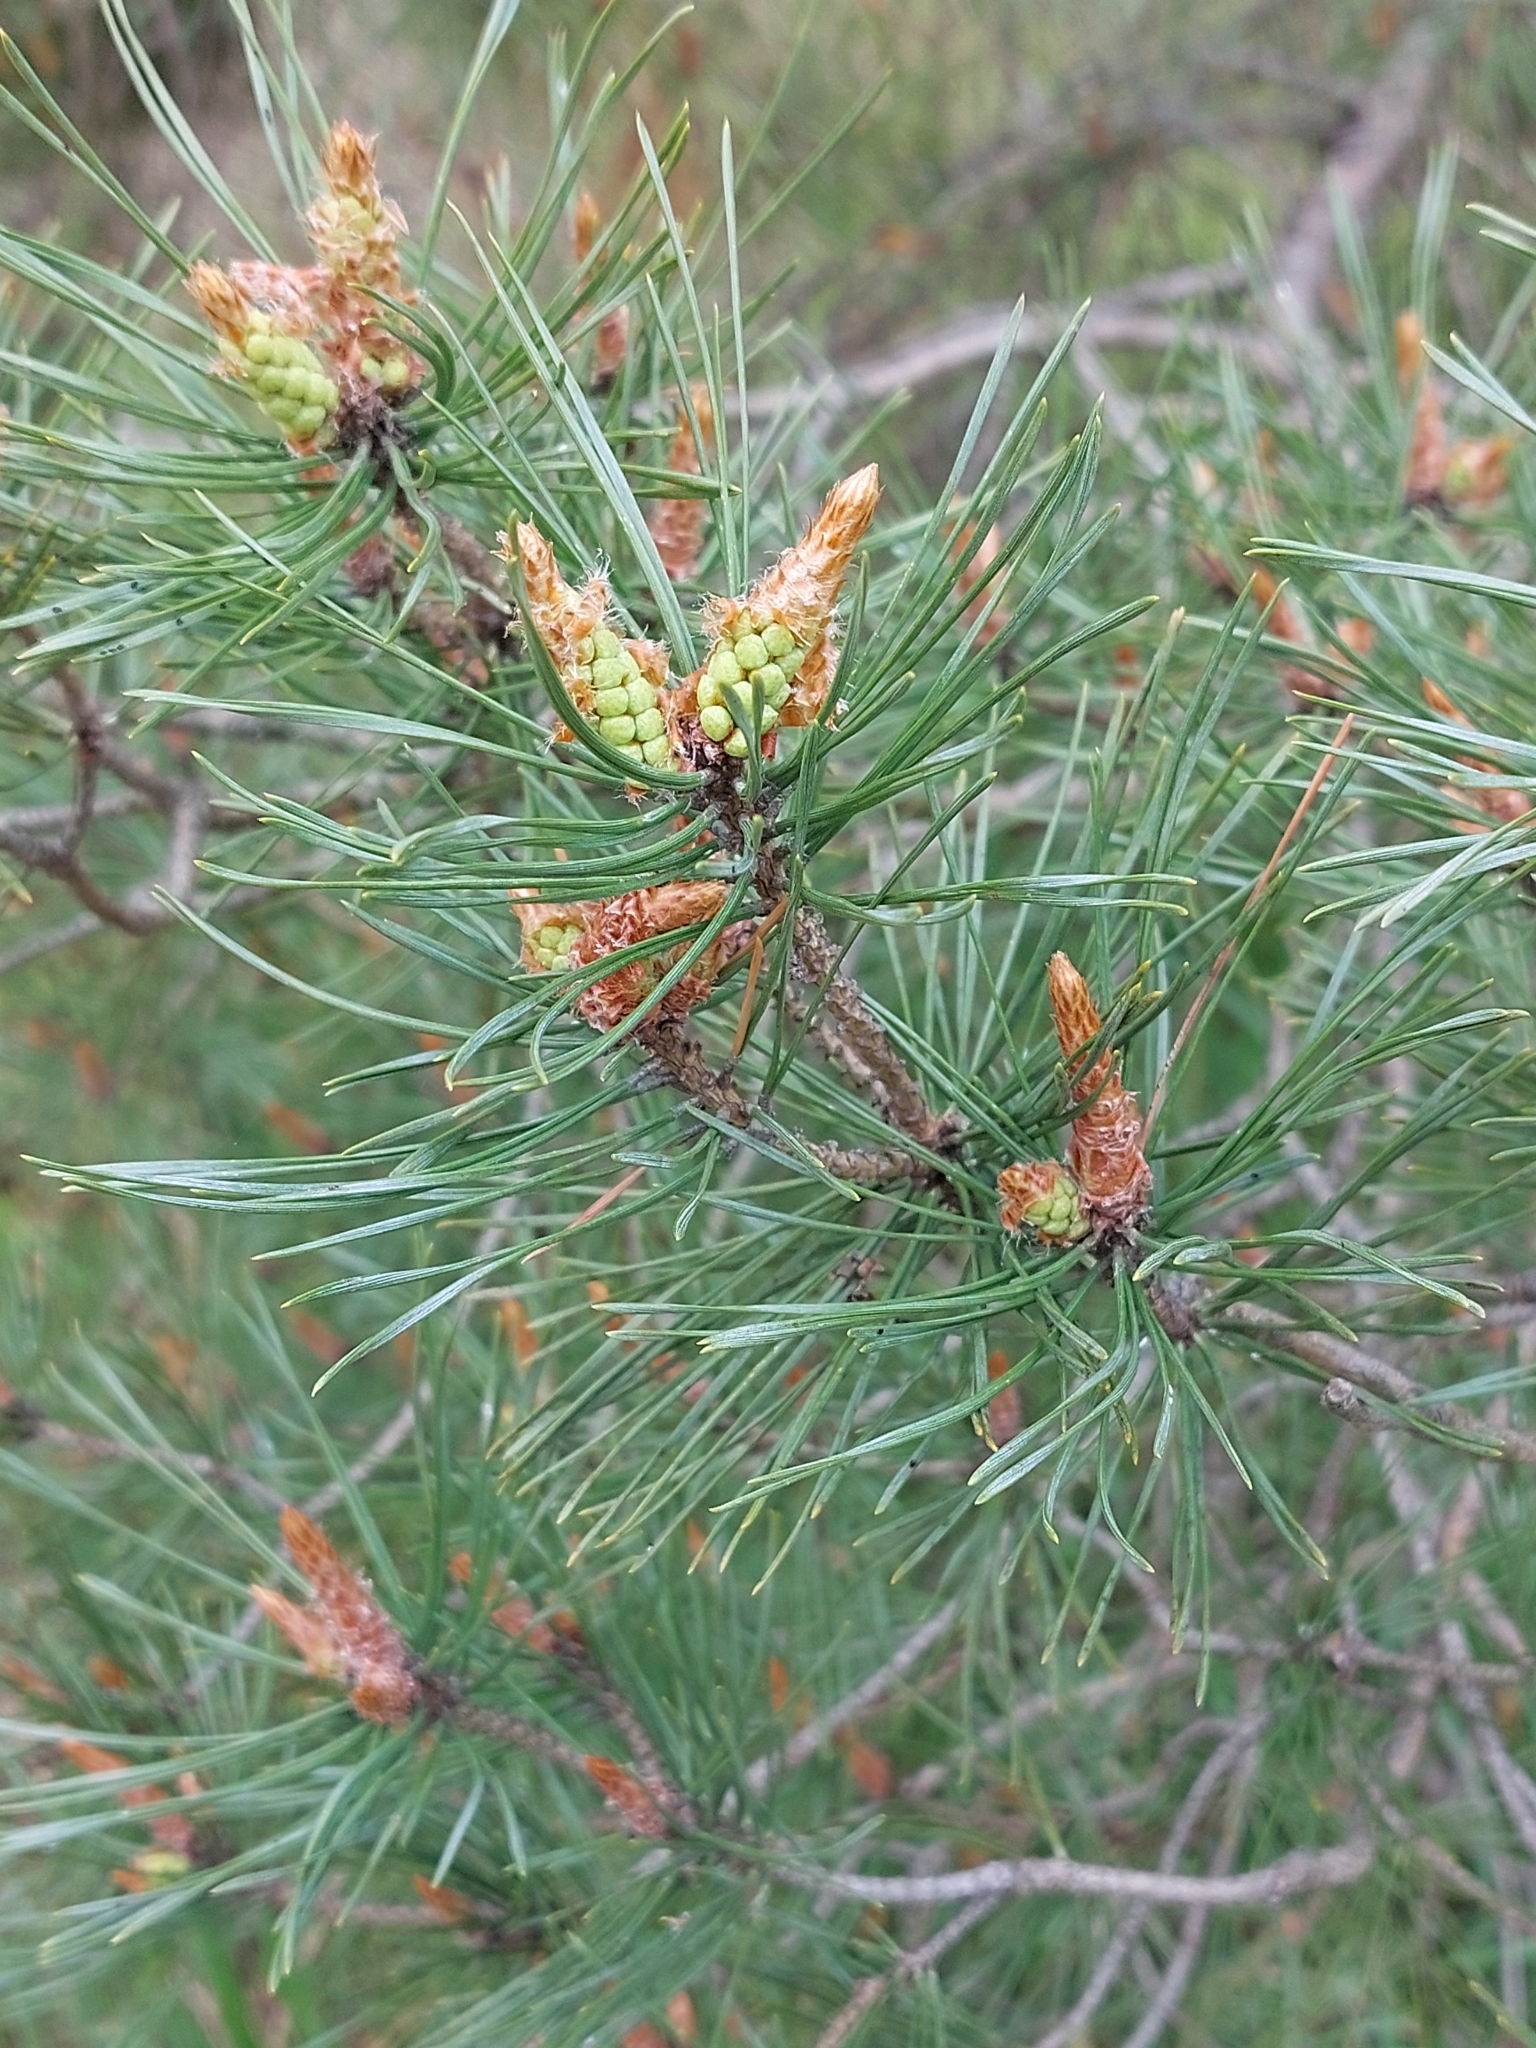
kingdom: Plantae
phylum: Tracheophyta
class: Pinopsida
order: Pinales
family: Pinaceae
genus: Pinus
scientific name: Pinus sylvestris
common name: Scots pine
